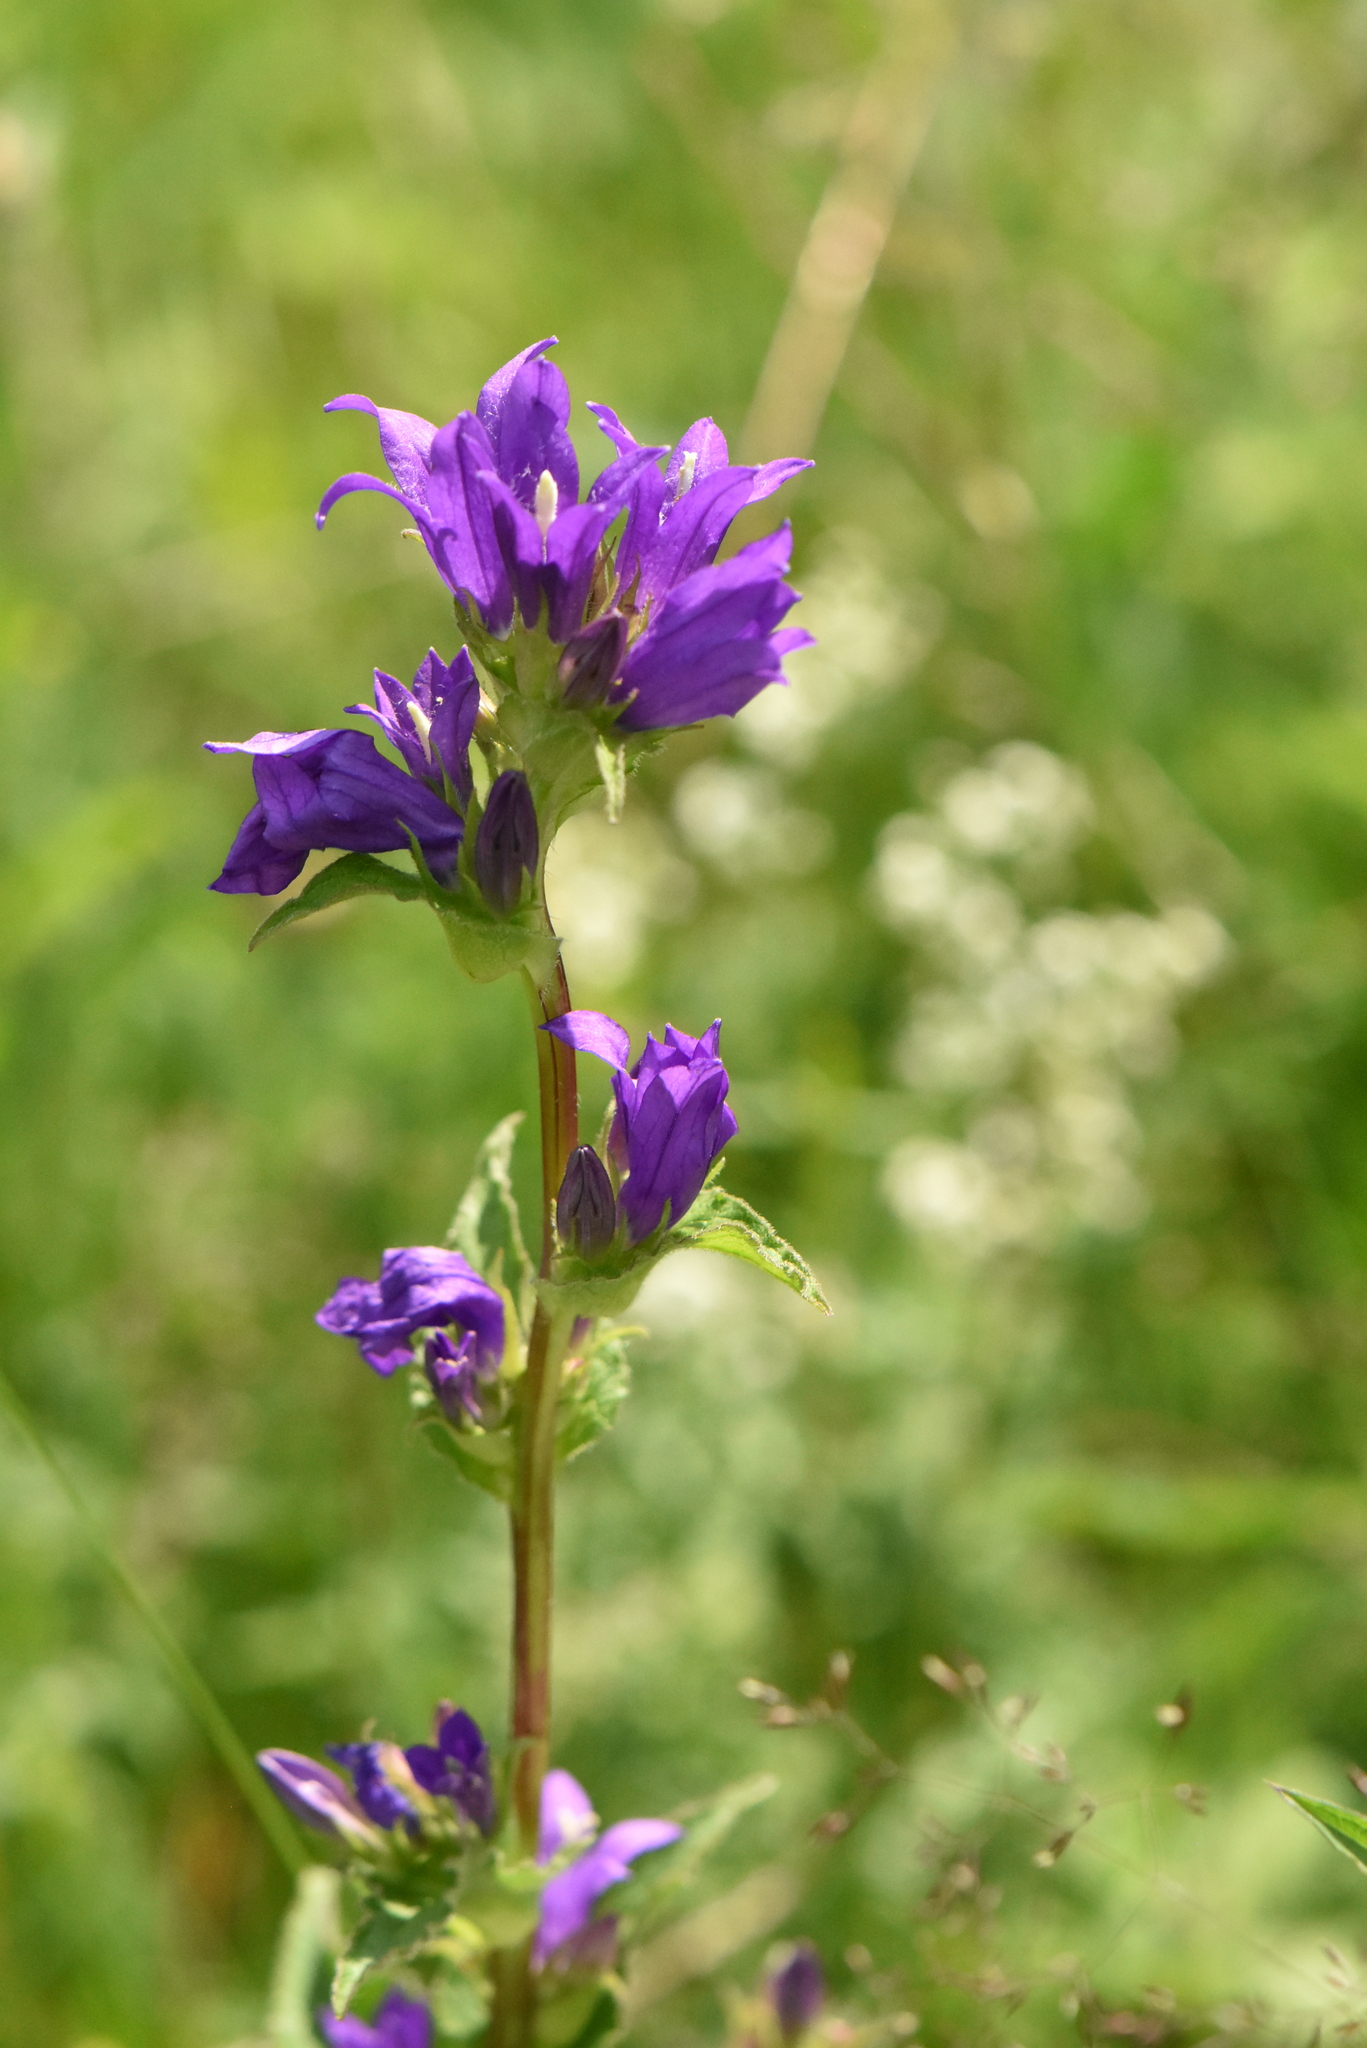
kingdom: Plantae
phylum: Tracheophyta
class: Magnoliopsida
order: Asterales
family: Campanulaceae
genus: Campanula
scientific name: Campanula glomerata
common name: Clustered bellflower
